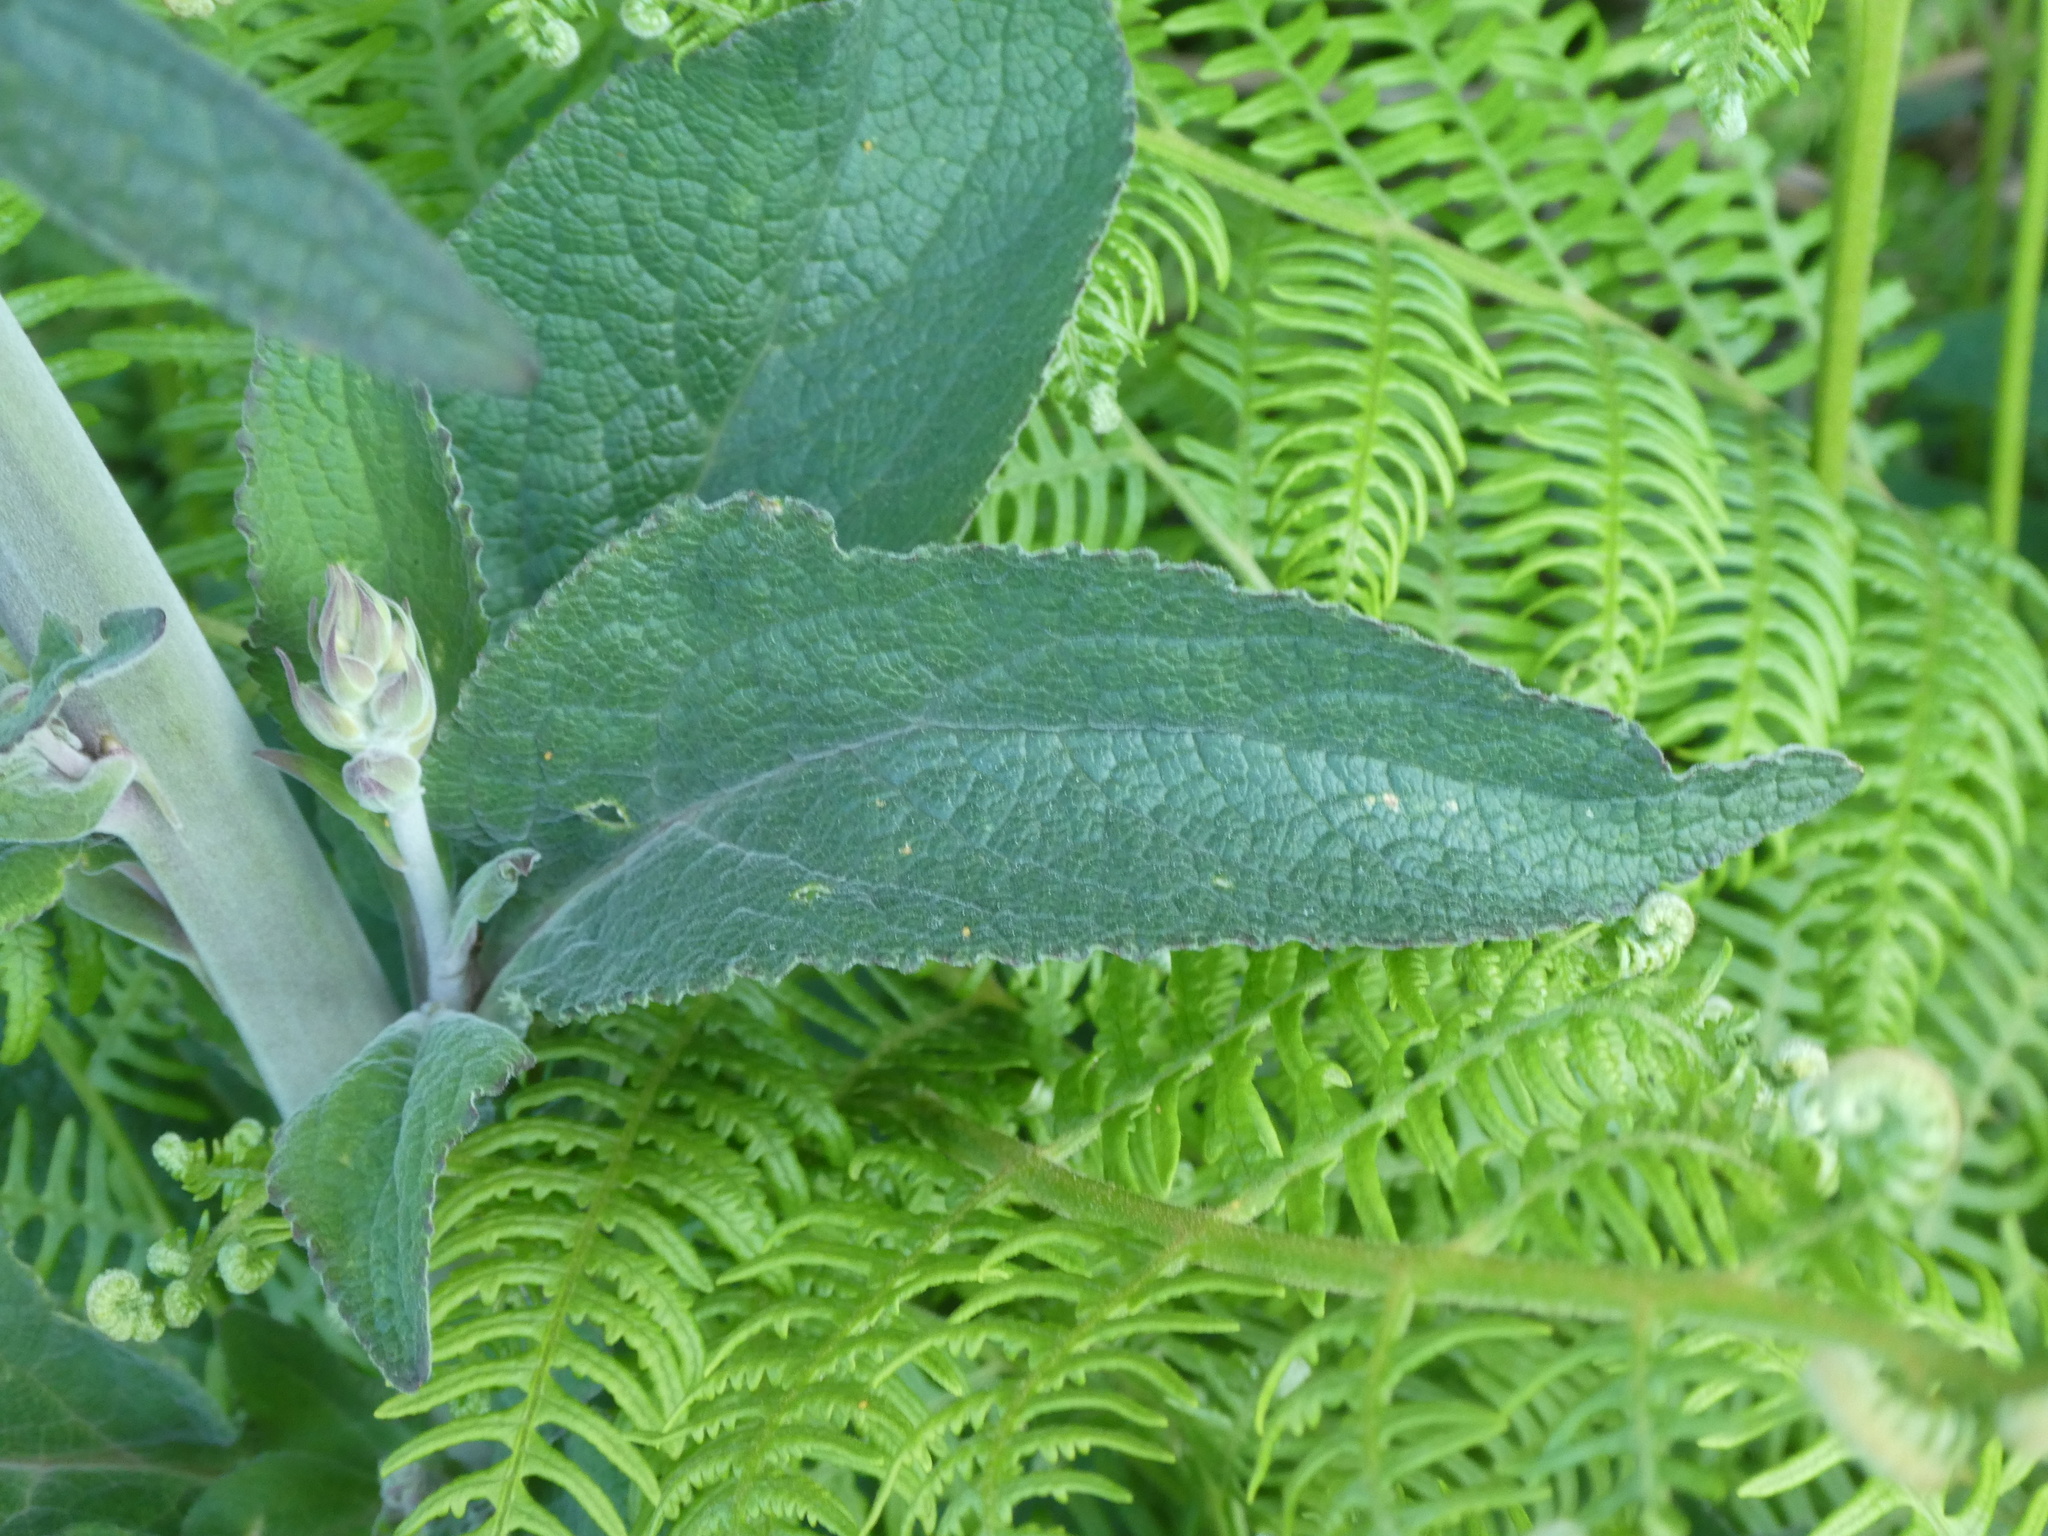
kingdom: Plantae
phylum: Tracheophyta
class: Magnoliopsida
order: Lamiales
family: Plantaginaceae
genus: Digitalis
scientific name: Digitalis purpurea
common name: Foxglove
